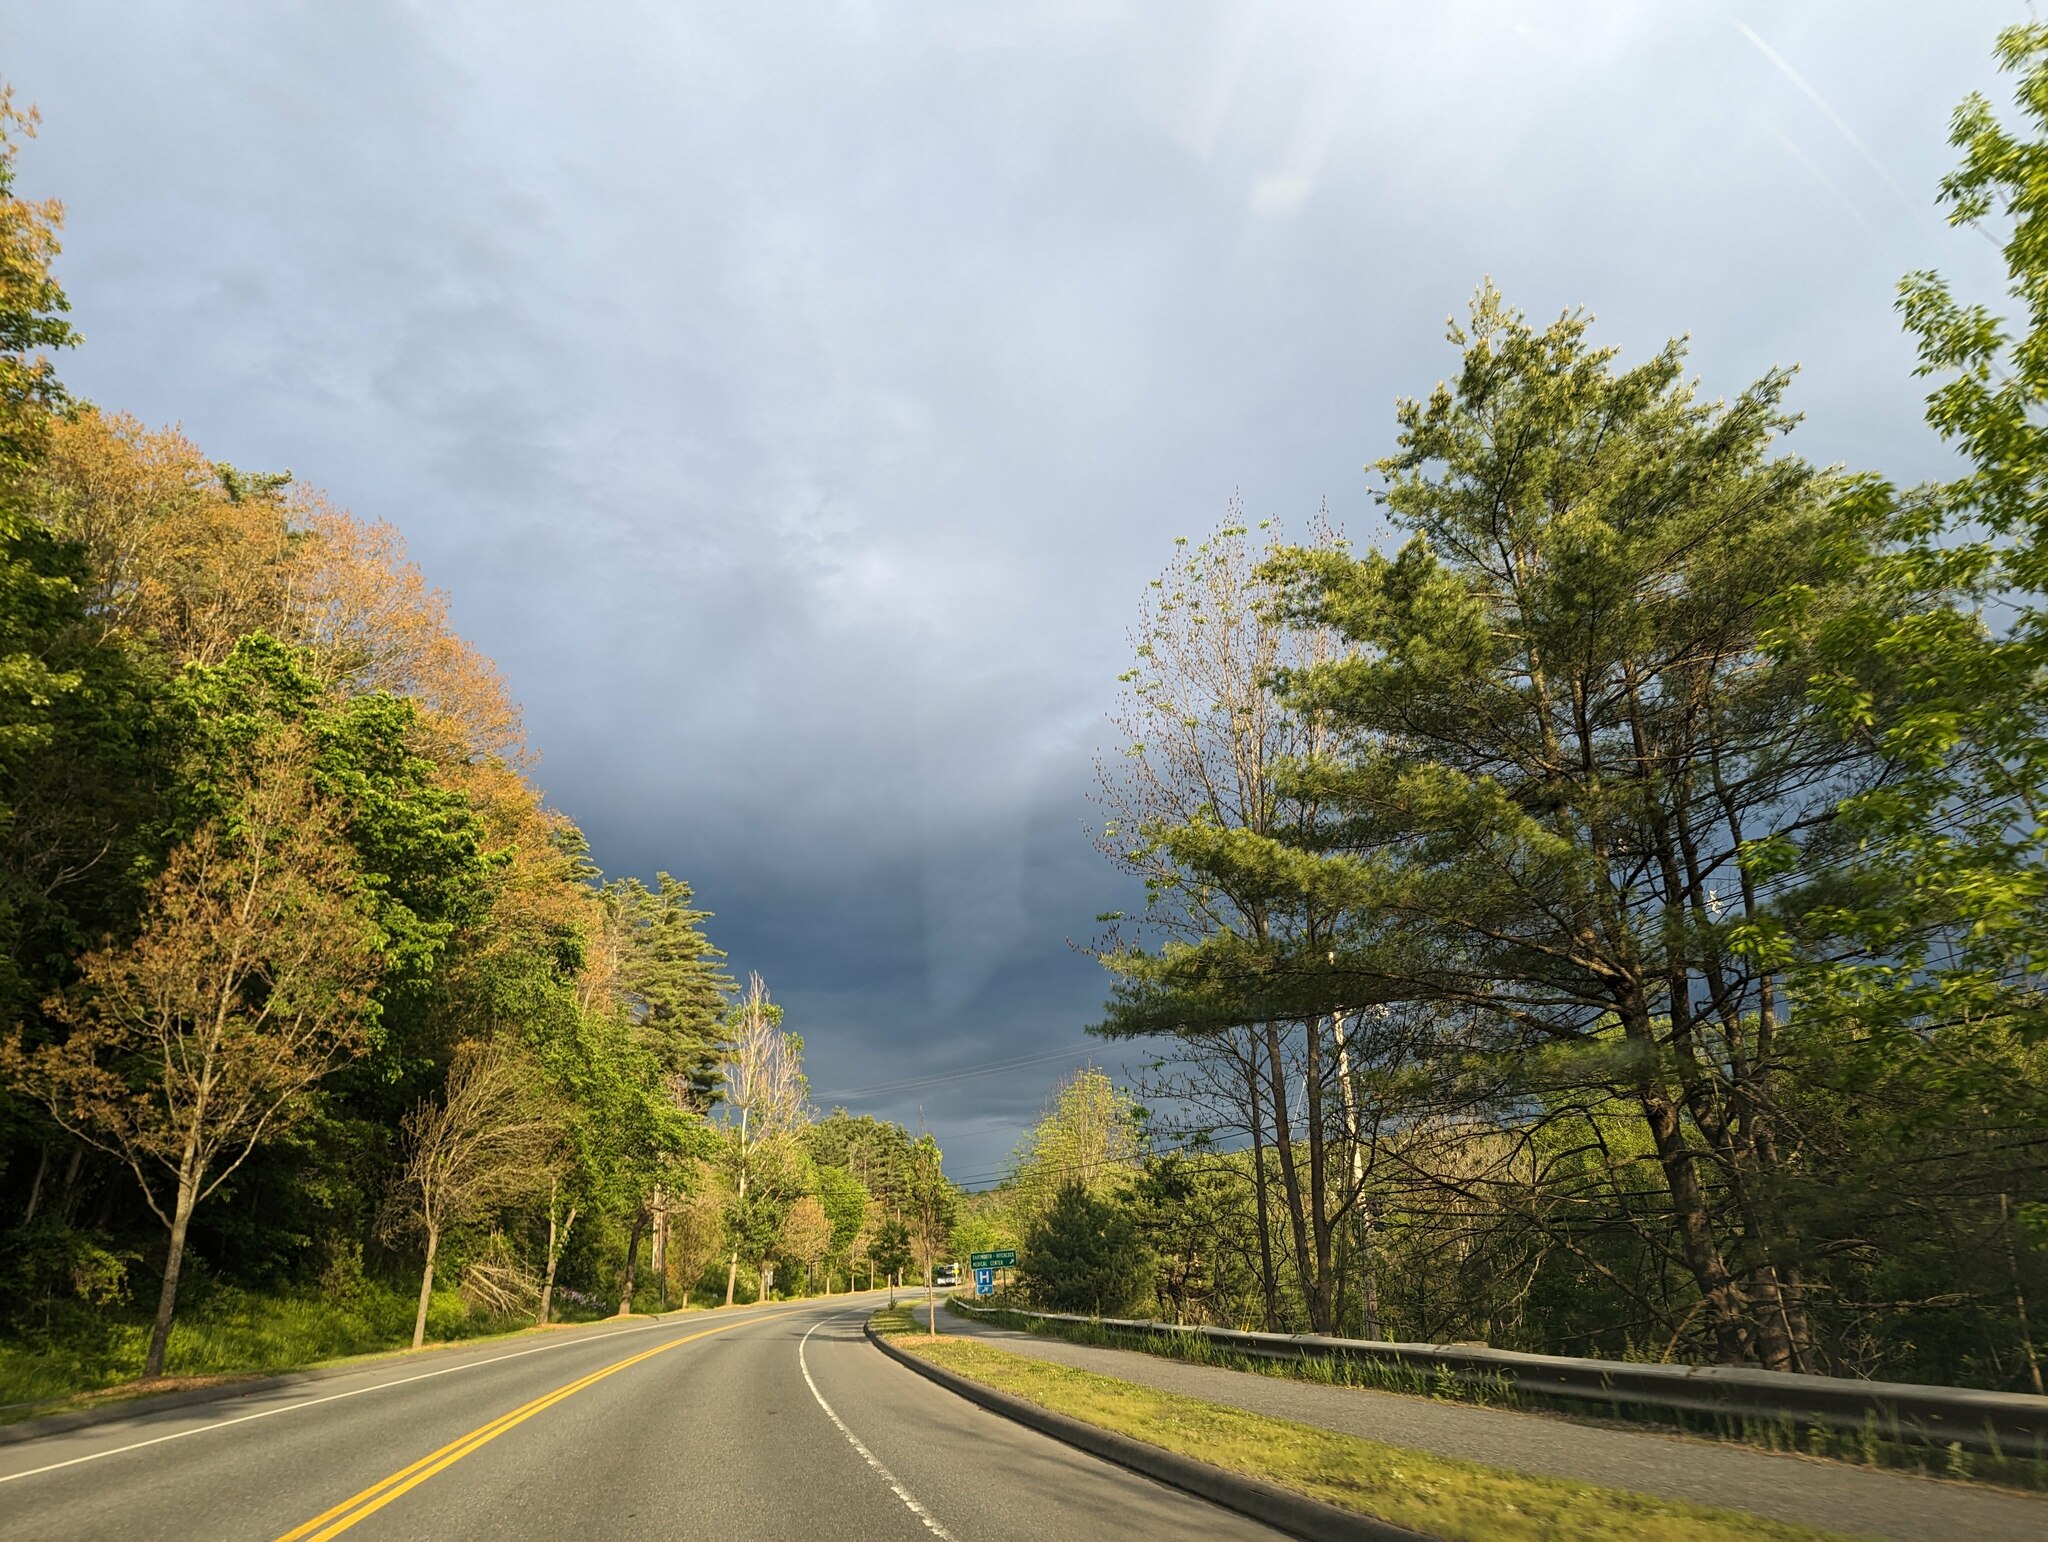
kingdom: Plantae
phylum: Tracheophyta
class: Pinopsida
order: Pinales
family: Pinaceae
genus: Pinus
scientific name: Pinus strobus
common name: Weymouth pine
